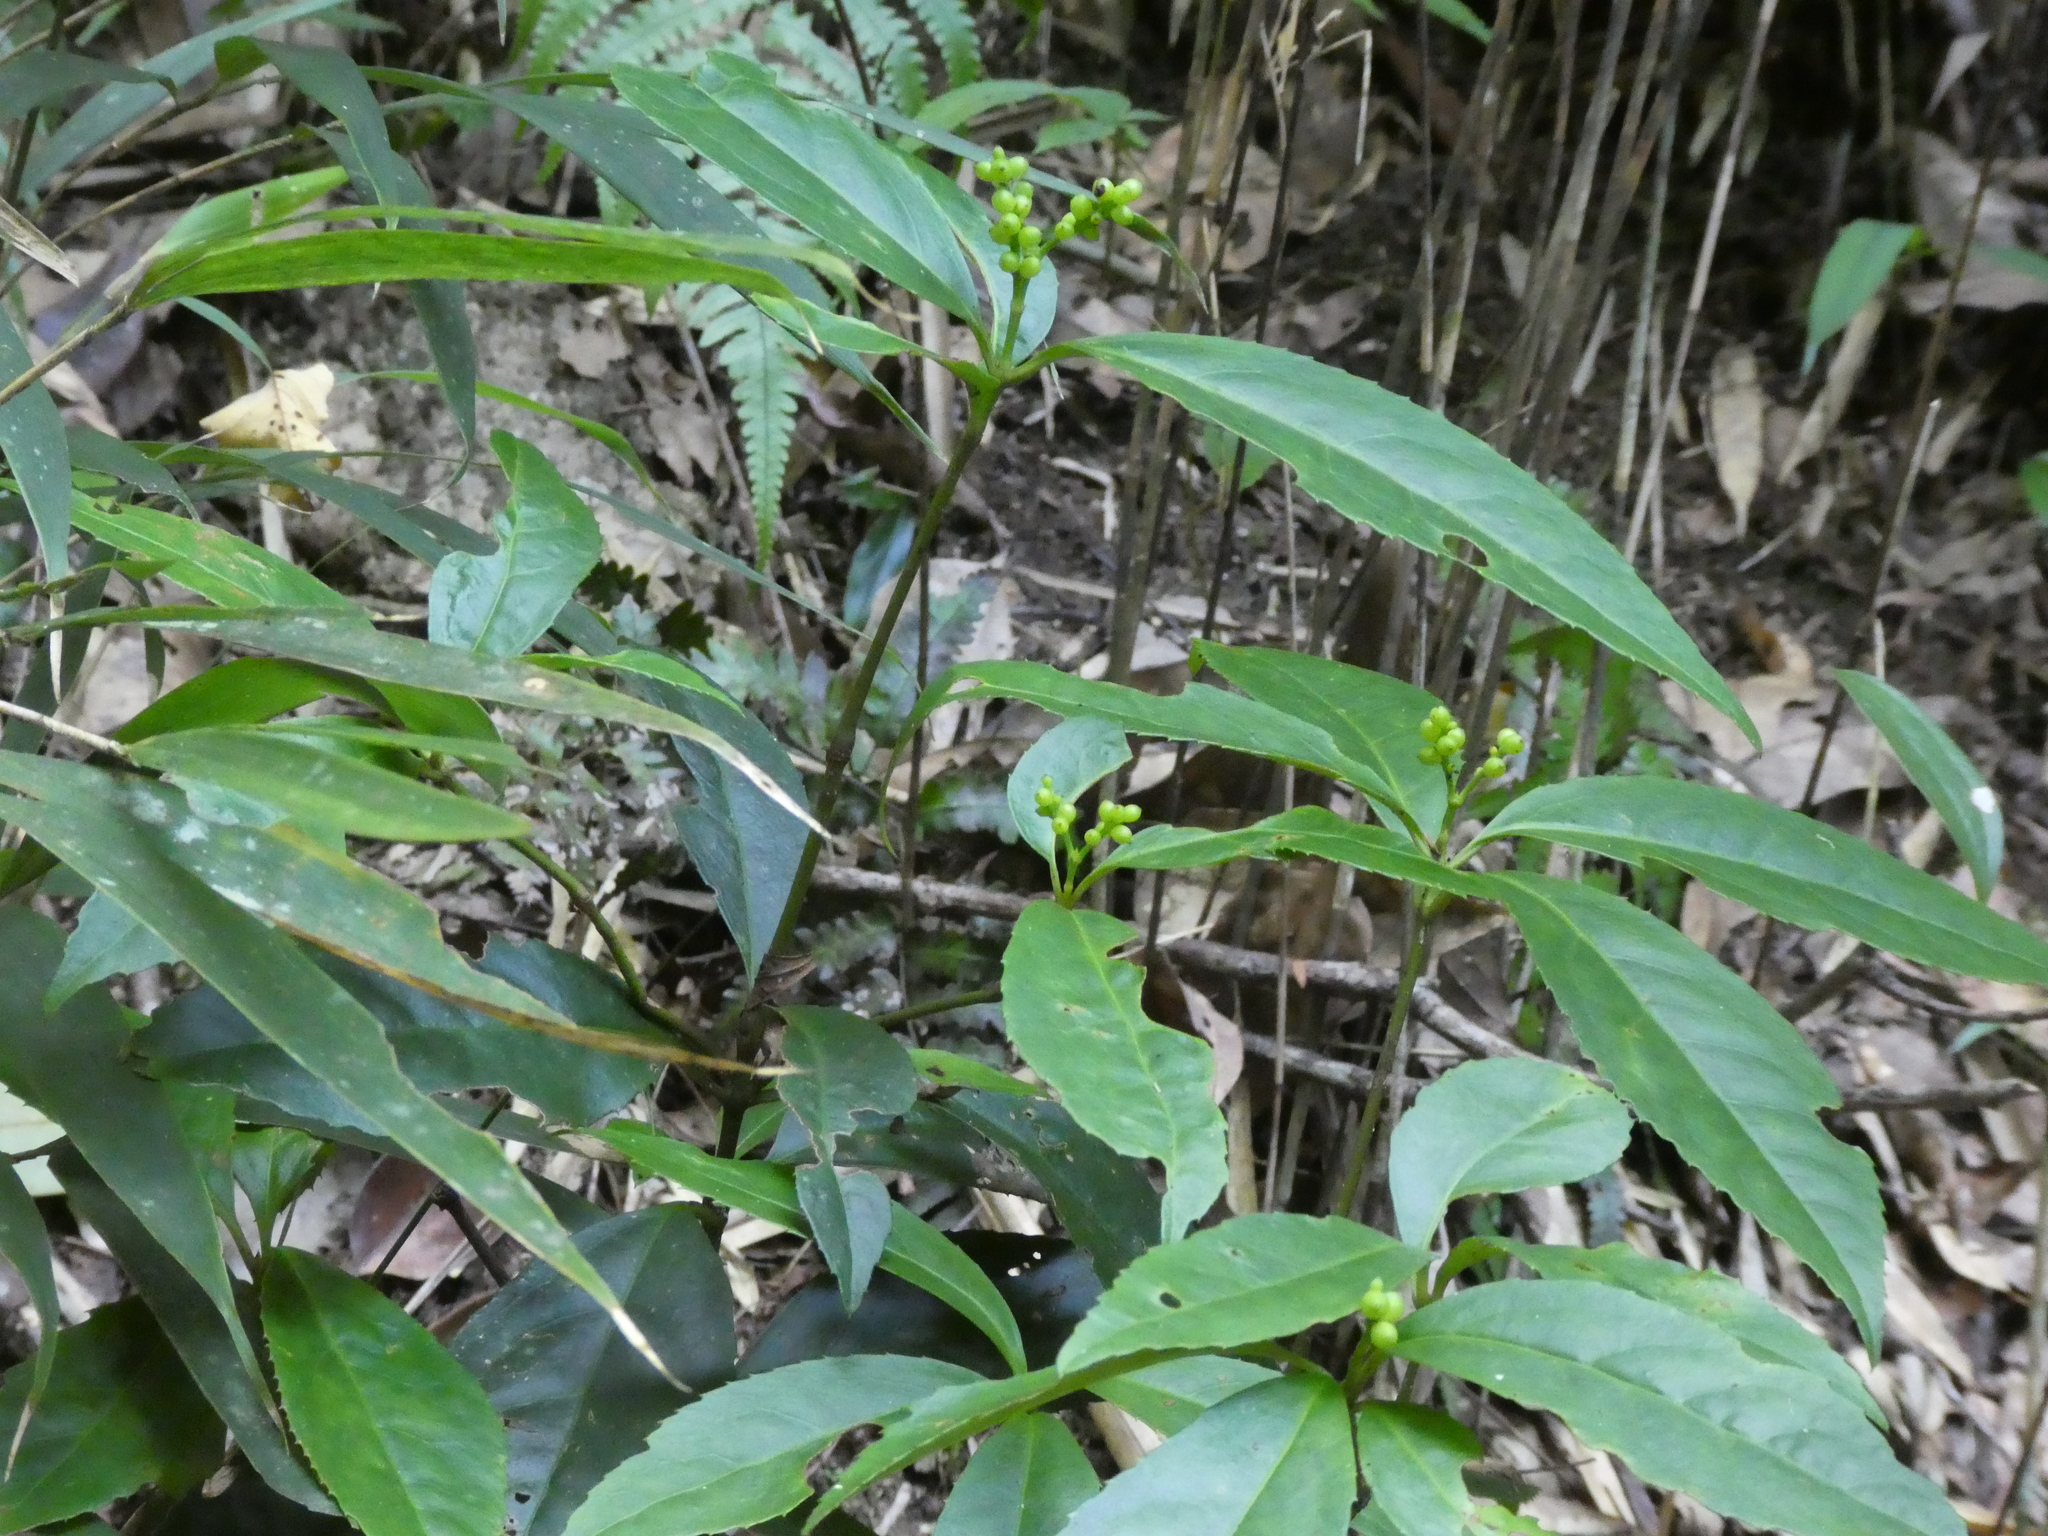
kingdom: Plantae
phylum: Tracheophyta
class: Magnoliopsida
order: Chloranthales
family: Chloranthaceae
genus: Sarcandra
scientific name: Sarcandra glabra
